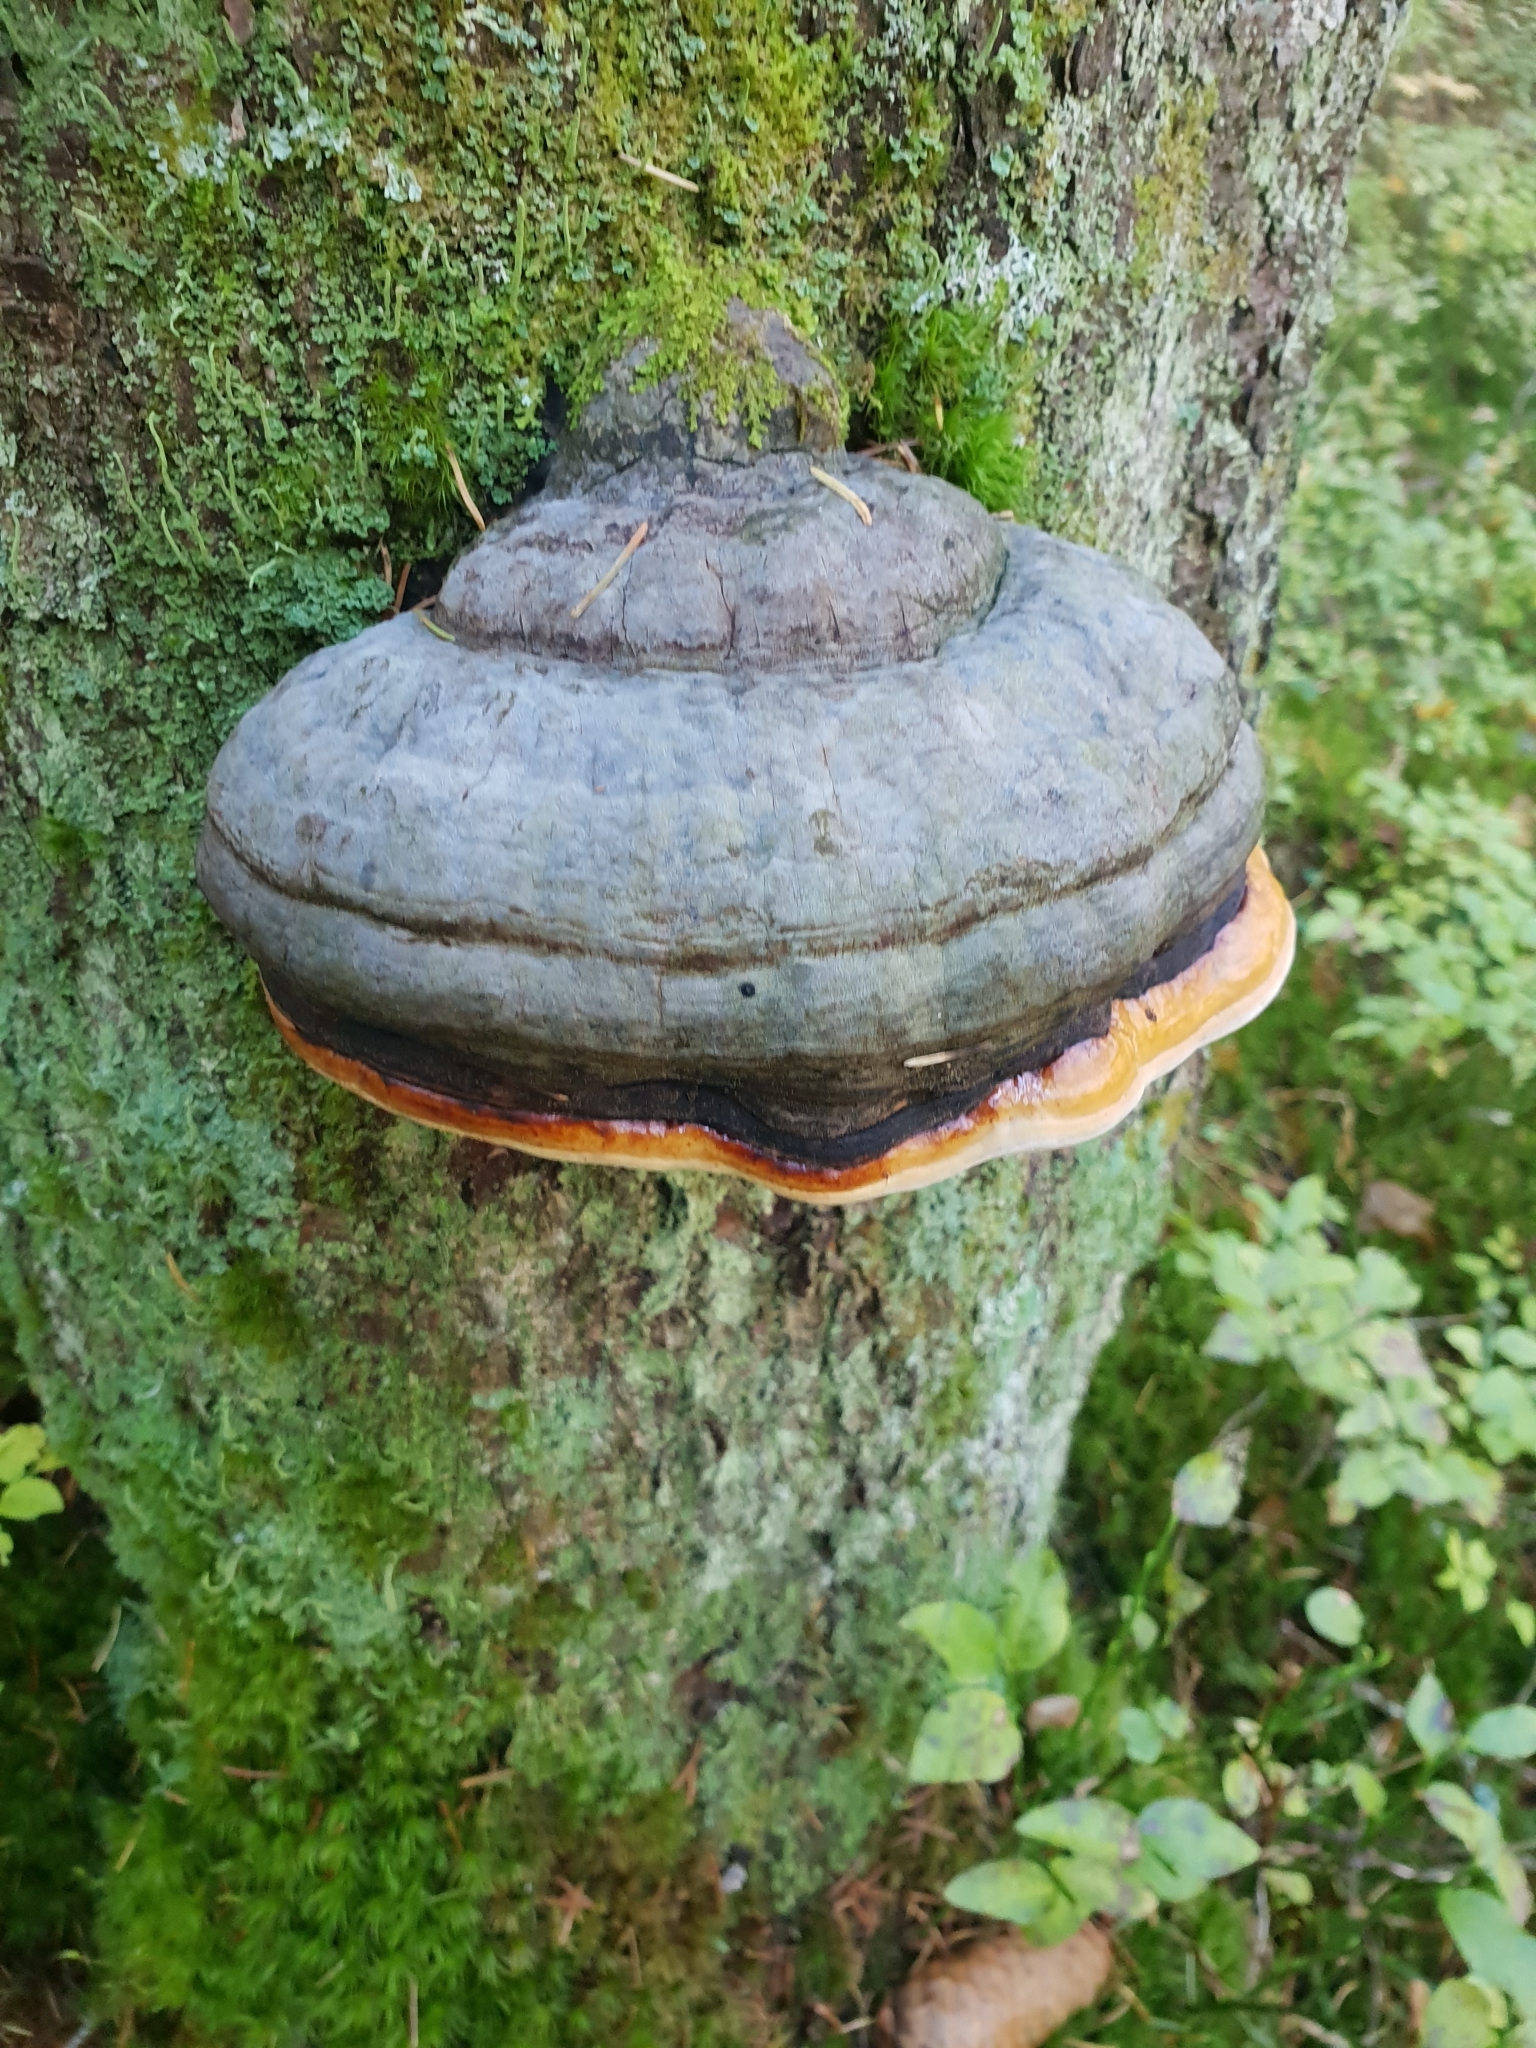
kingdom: Fungi
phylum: Basidiomycota
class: Agaricomycetes
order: Polyporales
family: Fomitopsidaceae
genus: Fomitopsis
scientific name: Fomitopsis pinicola
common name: Red-belted bracket
